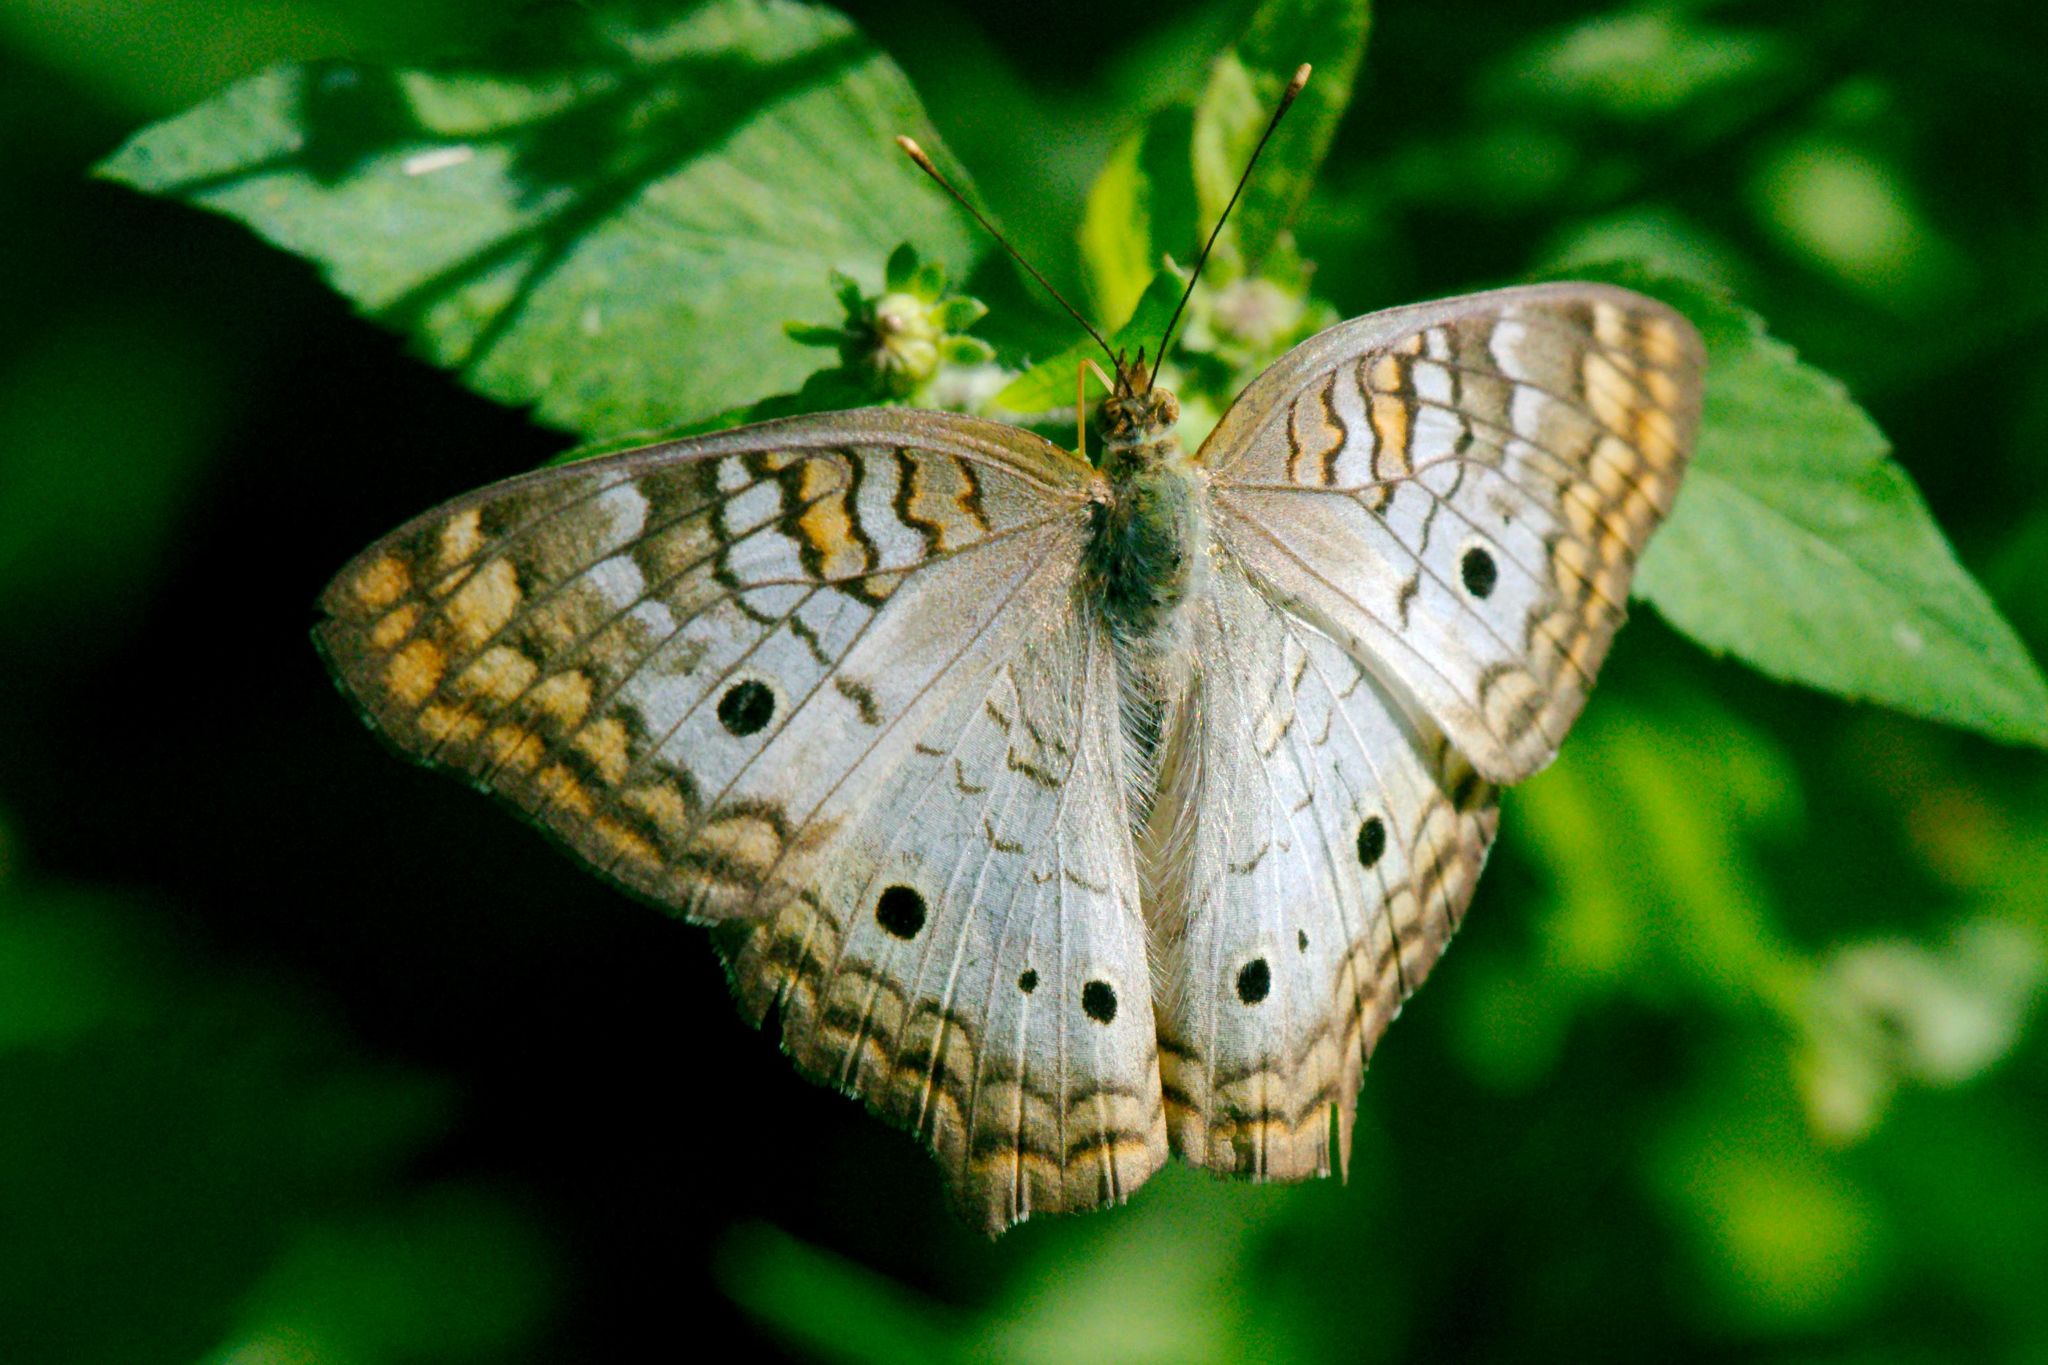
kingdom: Animalia
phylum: Arthropoda
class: Insecta
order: Lepidoptera
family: Nymphalidae
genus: Anartia
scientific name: Anartia jatrophae
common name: White peacock
